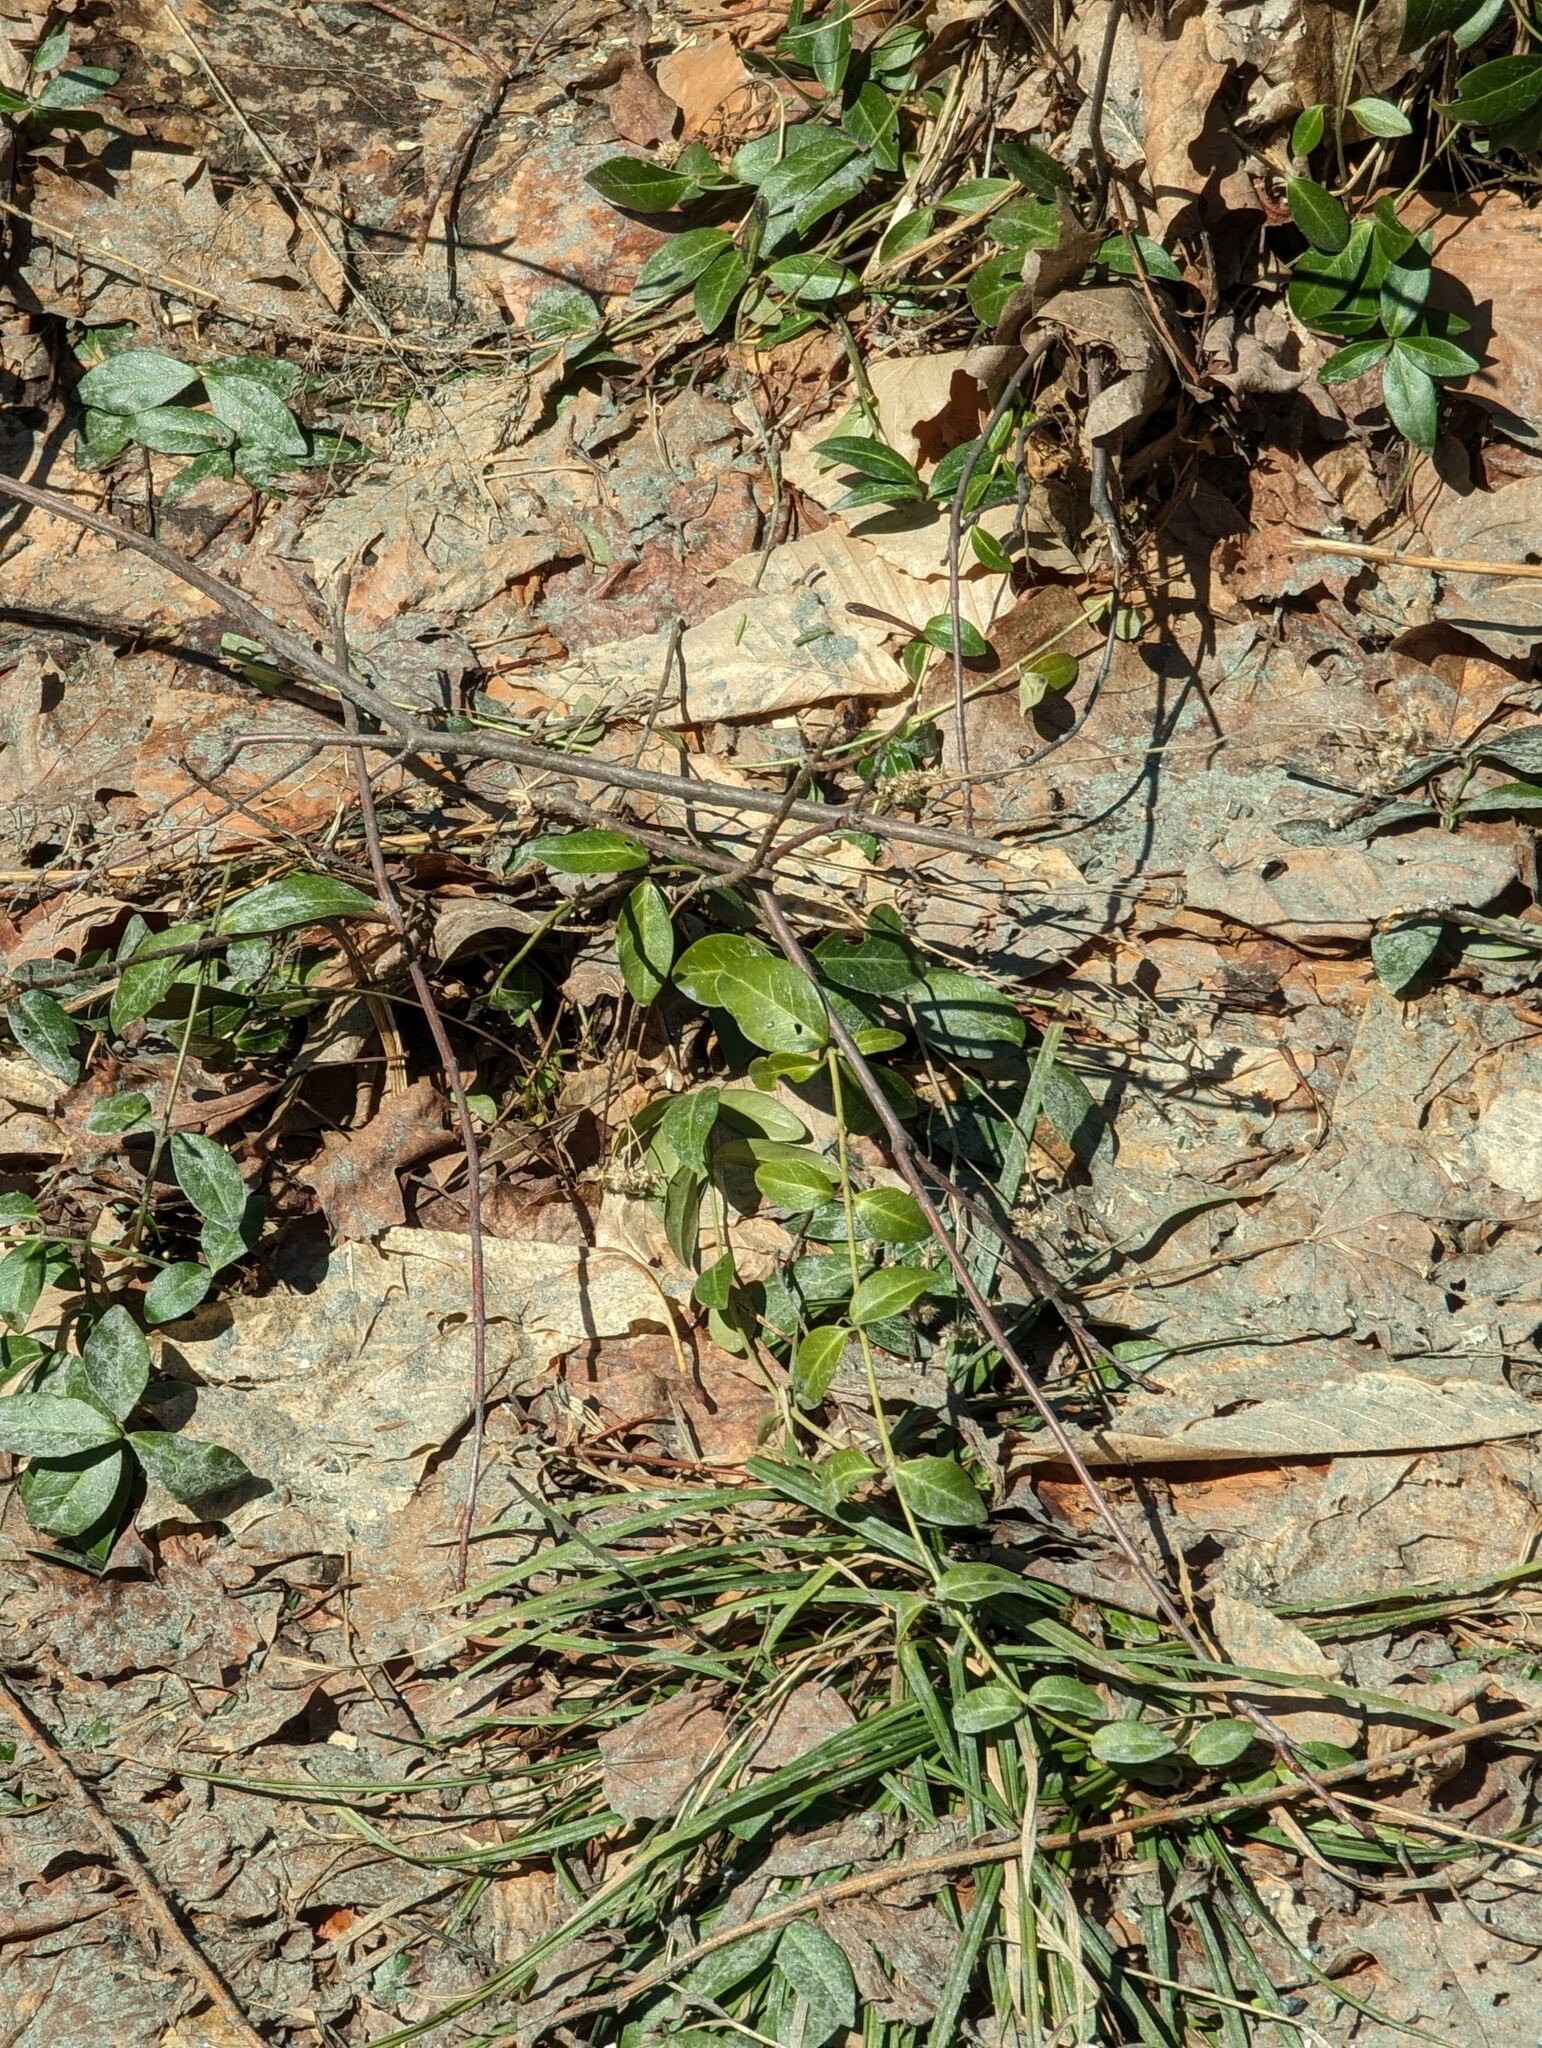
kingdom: Plantae
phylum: Tracheophyta
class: Magnoliopsida
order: Gentianales
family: Apocynaceae
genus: Vinca
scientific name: Vinca minor
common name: Lesser periwinkle
